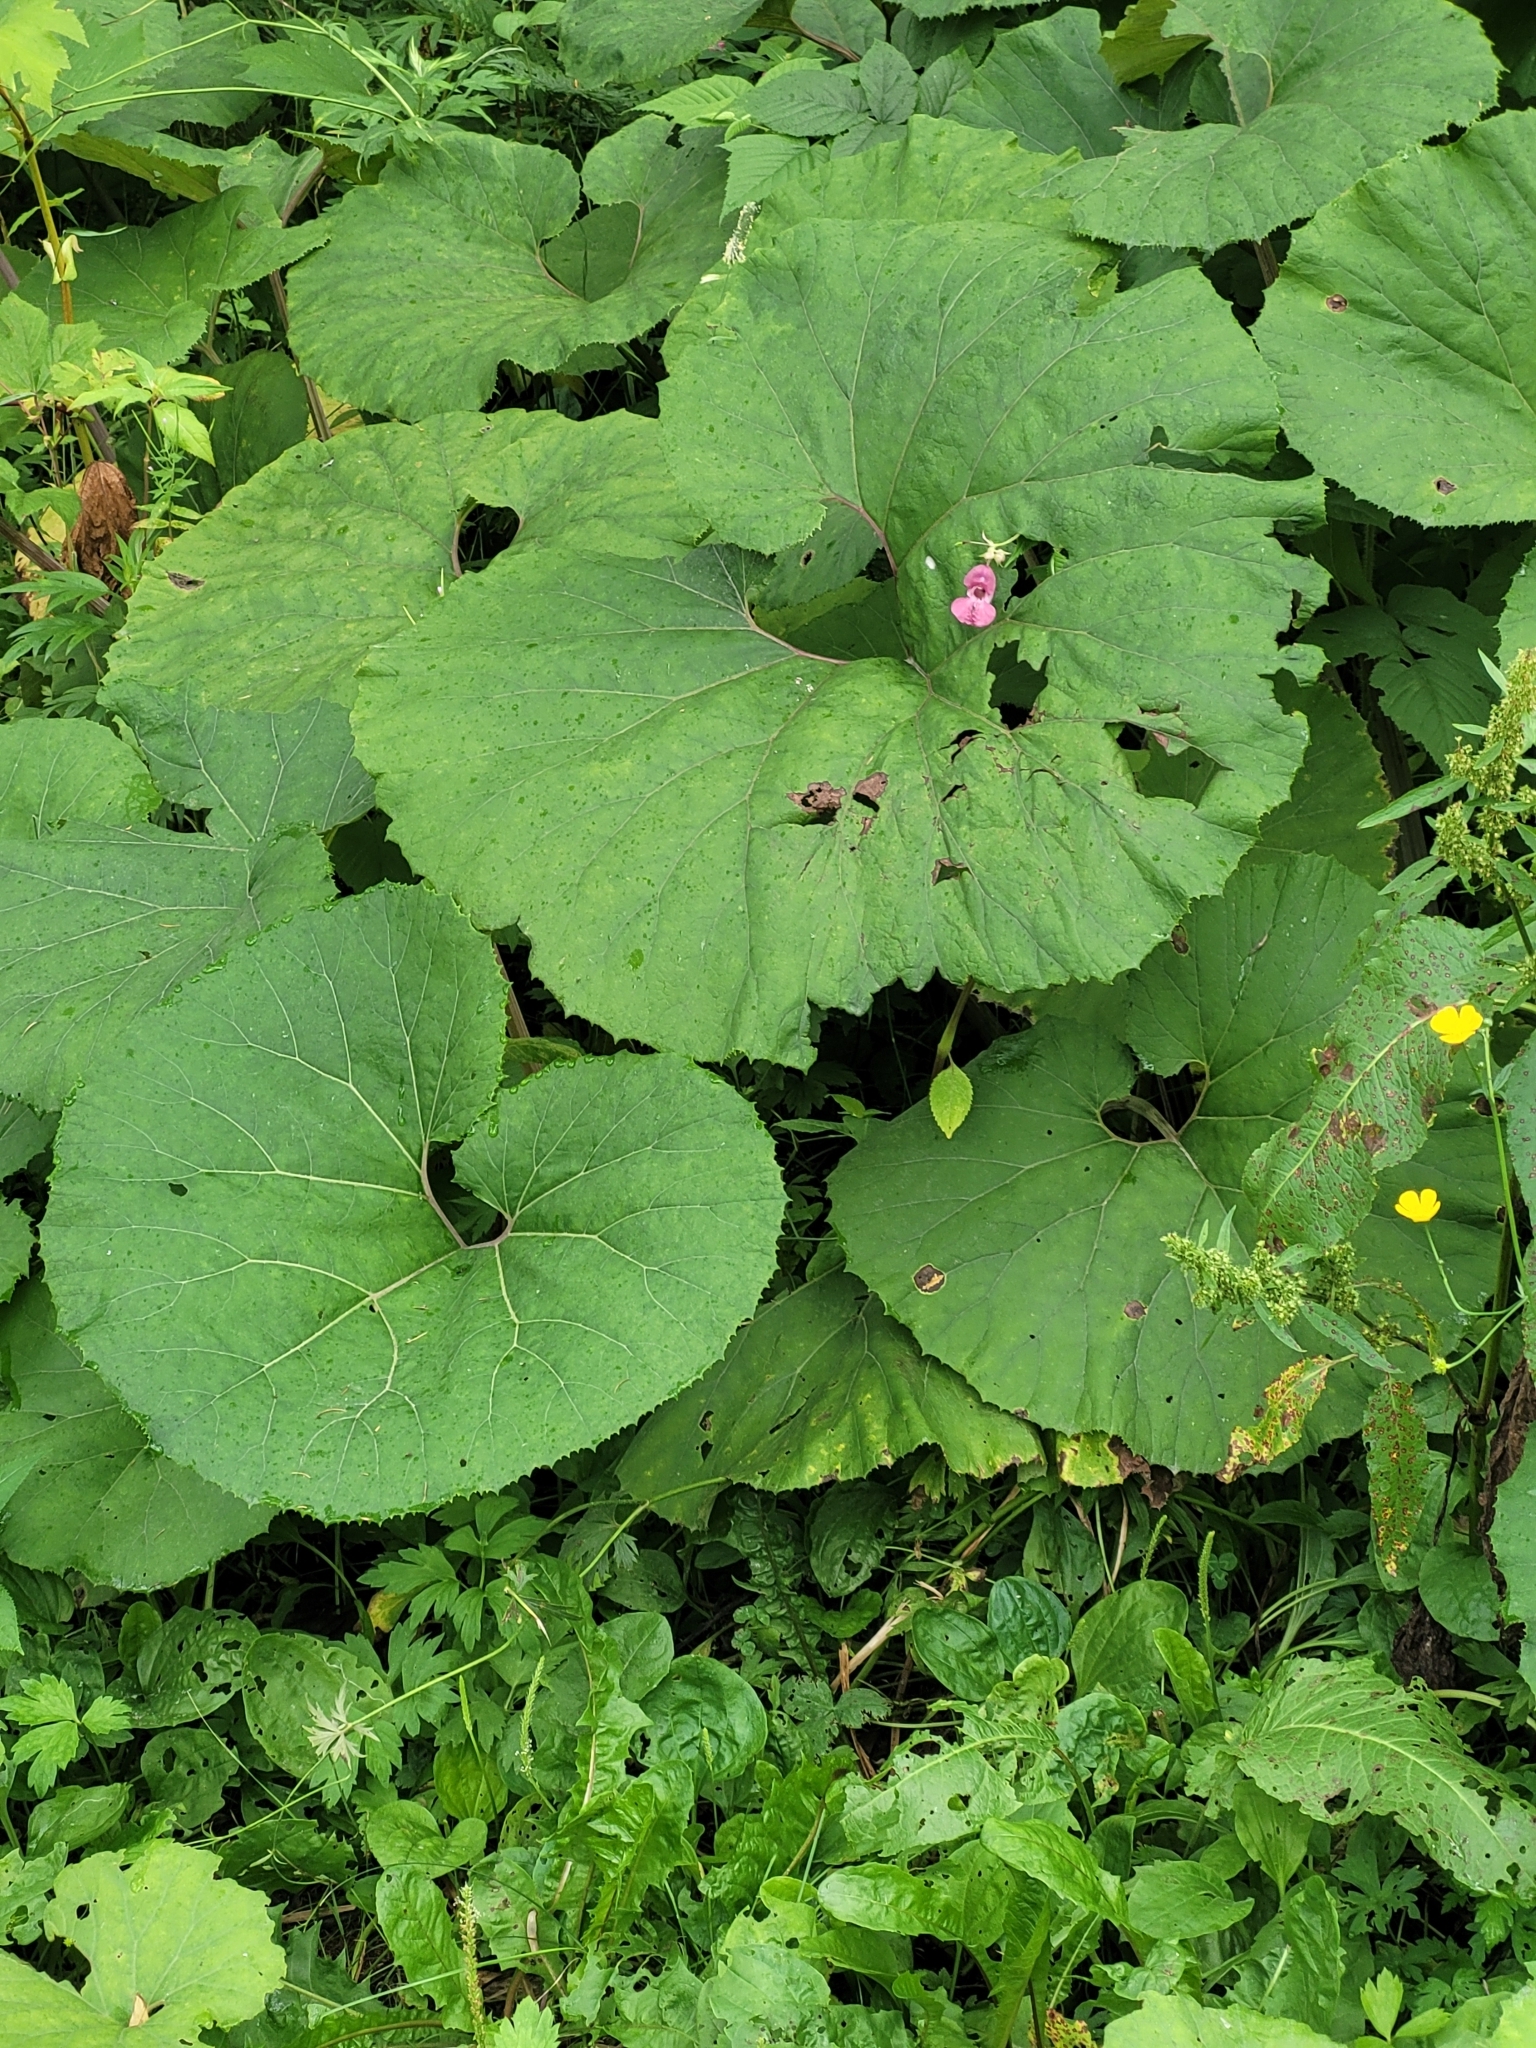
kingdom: Plantae
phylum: Tracheophyta
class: Magnoliopsida
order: Asterales
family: Asteraceae
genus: Petasites
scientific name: Petasites japonicus
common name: Giant butterbur
